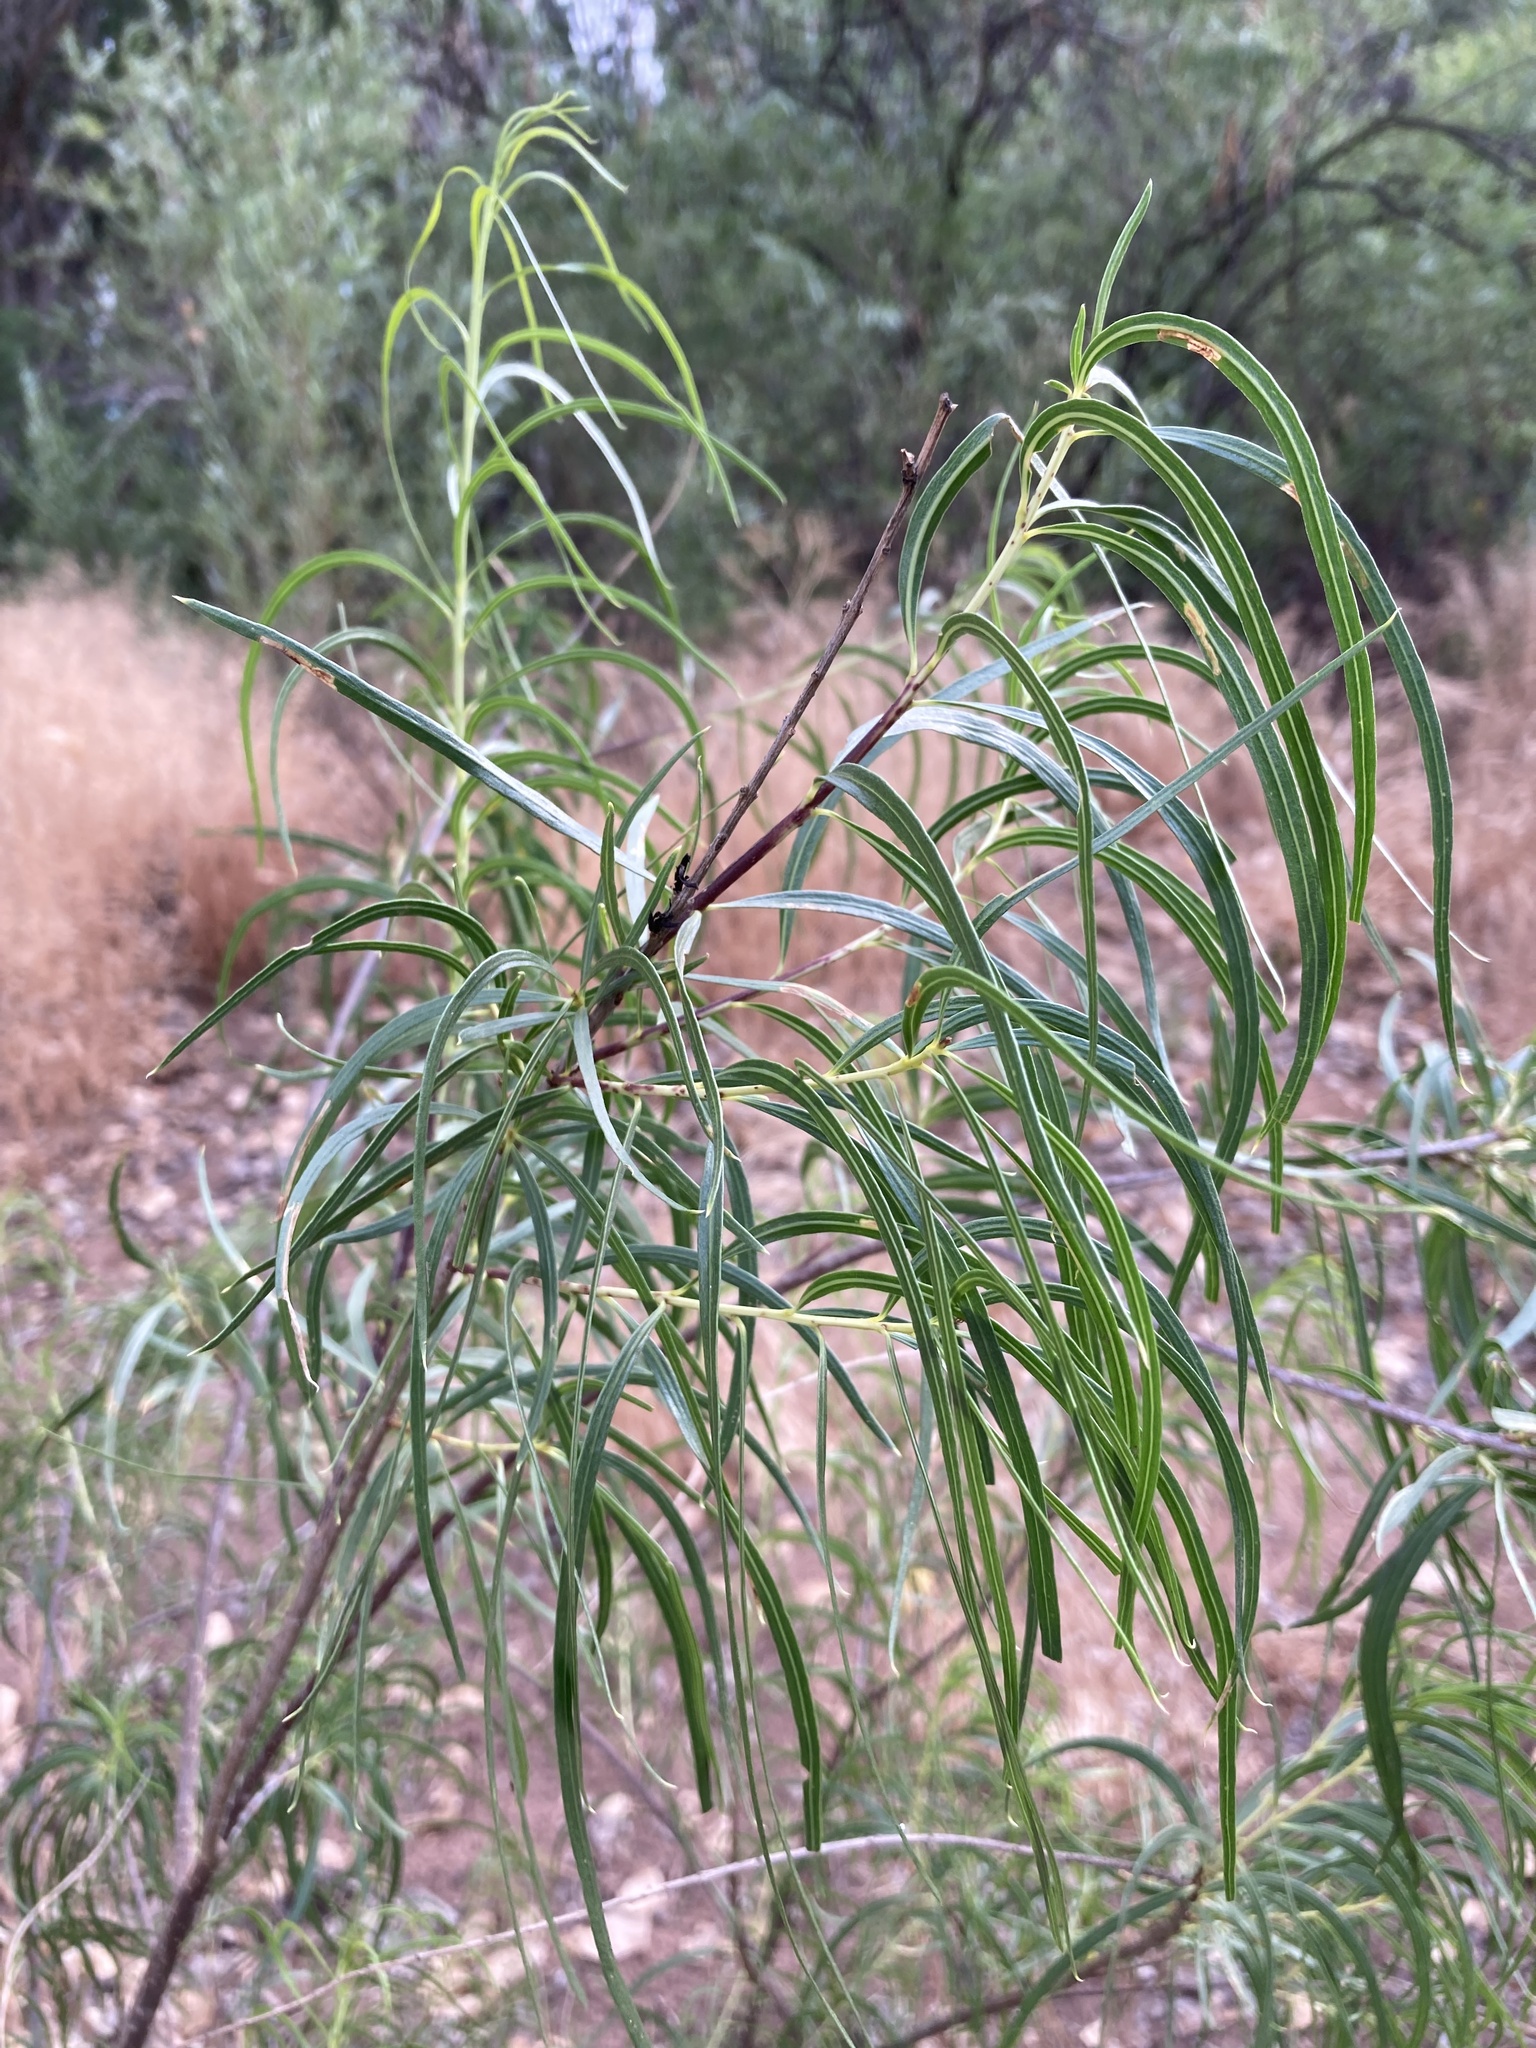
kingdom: Plantae
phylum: Tracheophyta
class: Magnoliopsida
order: Lamiales
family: Bignoniaceae
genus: Chilopsis
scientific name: Chilopsis linearis
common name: Desert-willow
